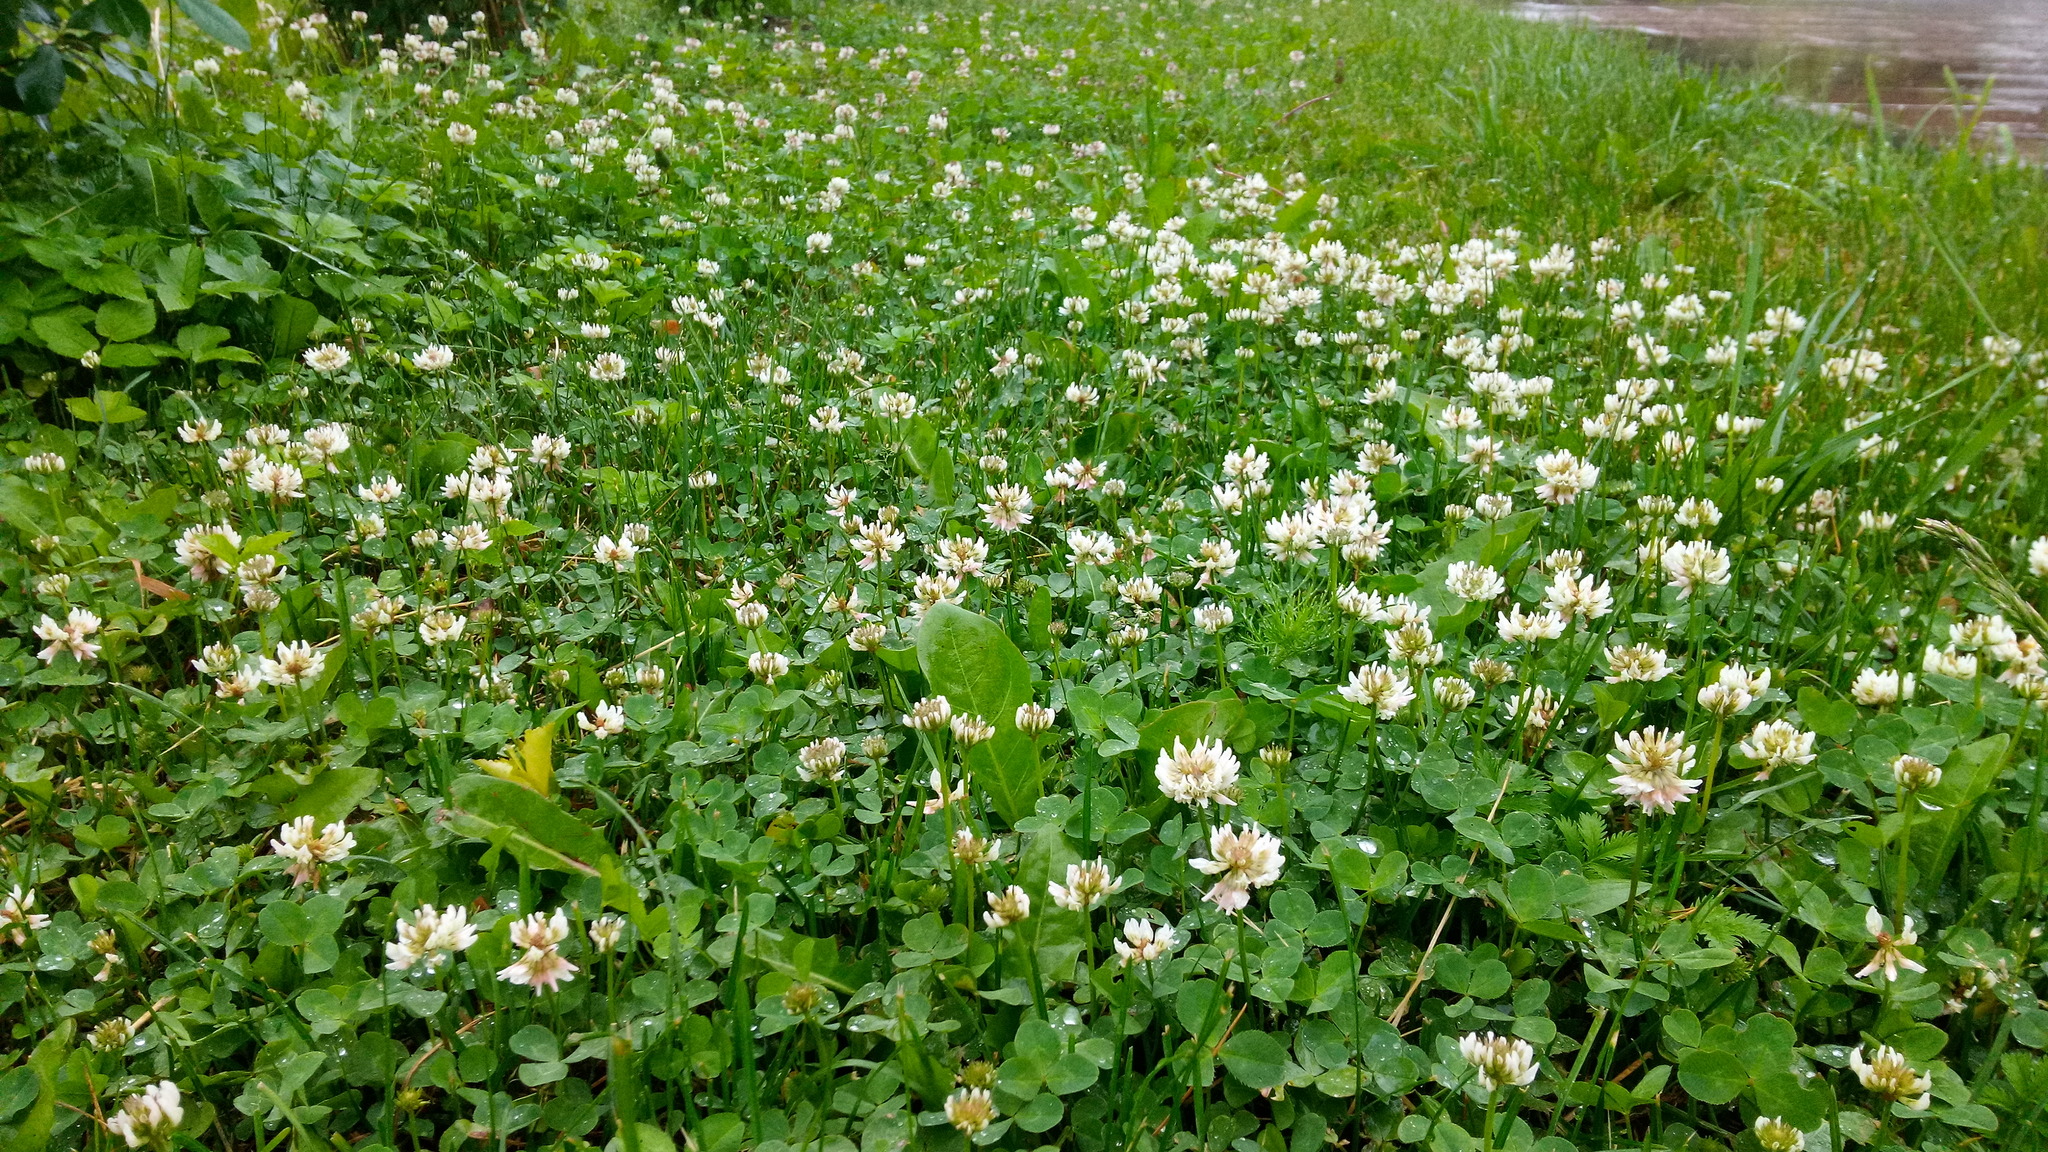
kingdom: Plantae
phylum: Tracheophyta
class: Magnoliopsida
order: Fabales
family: Fabaceae
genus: Trifolium
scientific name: Trifolium repens
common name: White clover
